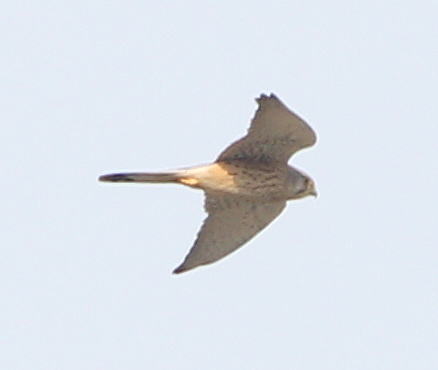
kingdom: Animalia
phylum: Chordata
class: Aves
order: Falconiformes
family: Falconidae
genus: Falco
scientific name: Falco tinnunculus
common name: Common kestrel
